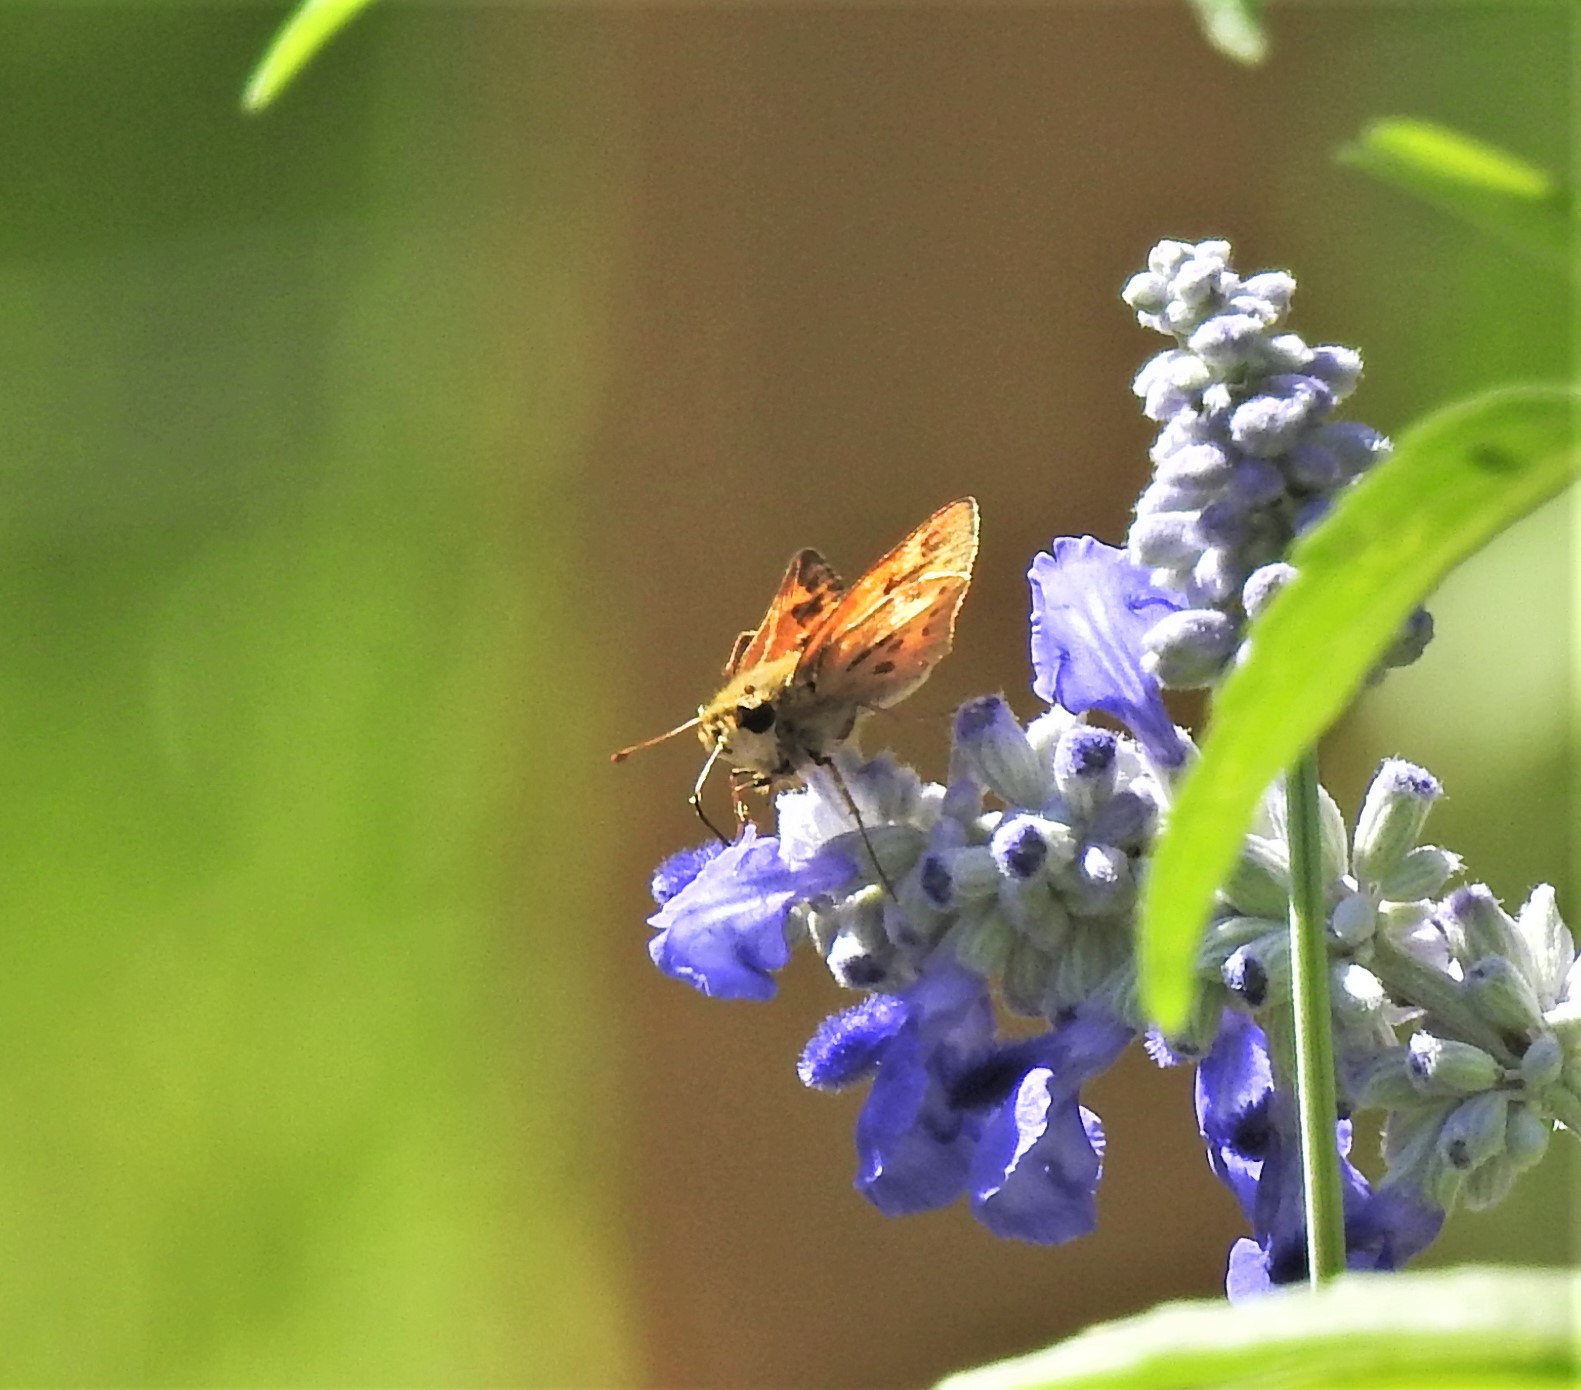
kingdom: Animalia
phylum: Arthropoda
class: Insecta
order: Lepidoptera
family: Hesperiidae
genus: Hylephila
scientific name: Hylephila phyleus
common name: Fiery skipper
